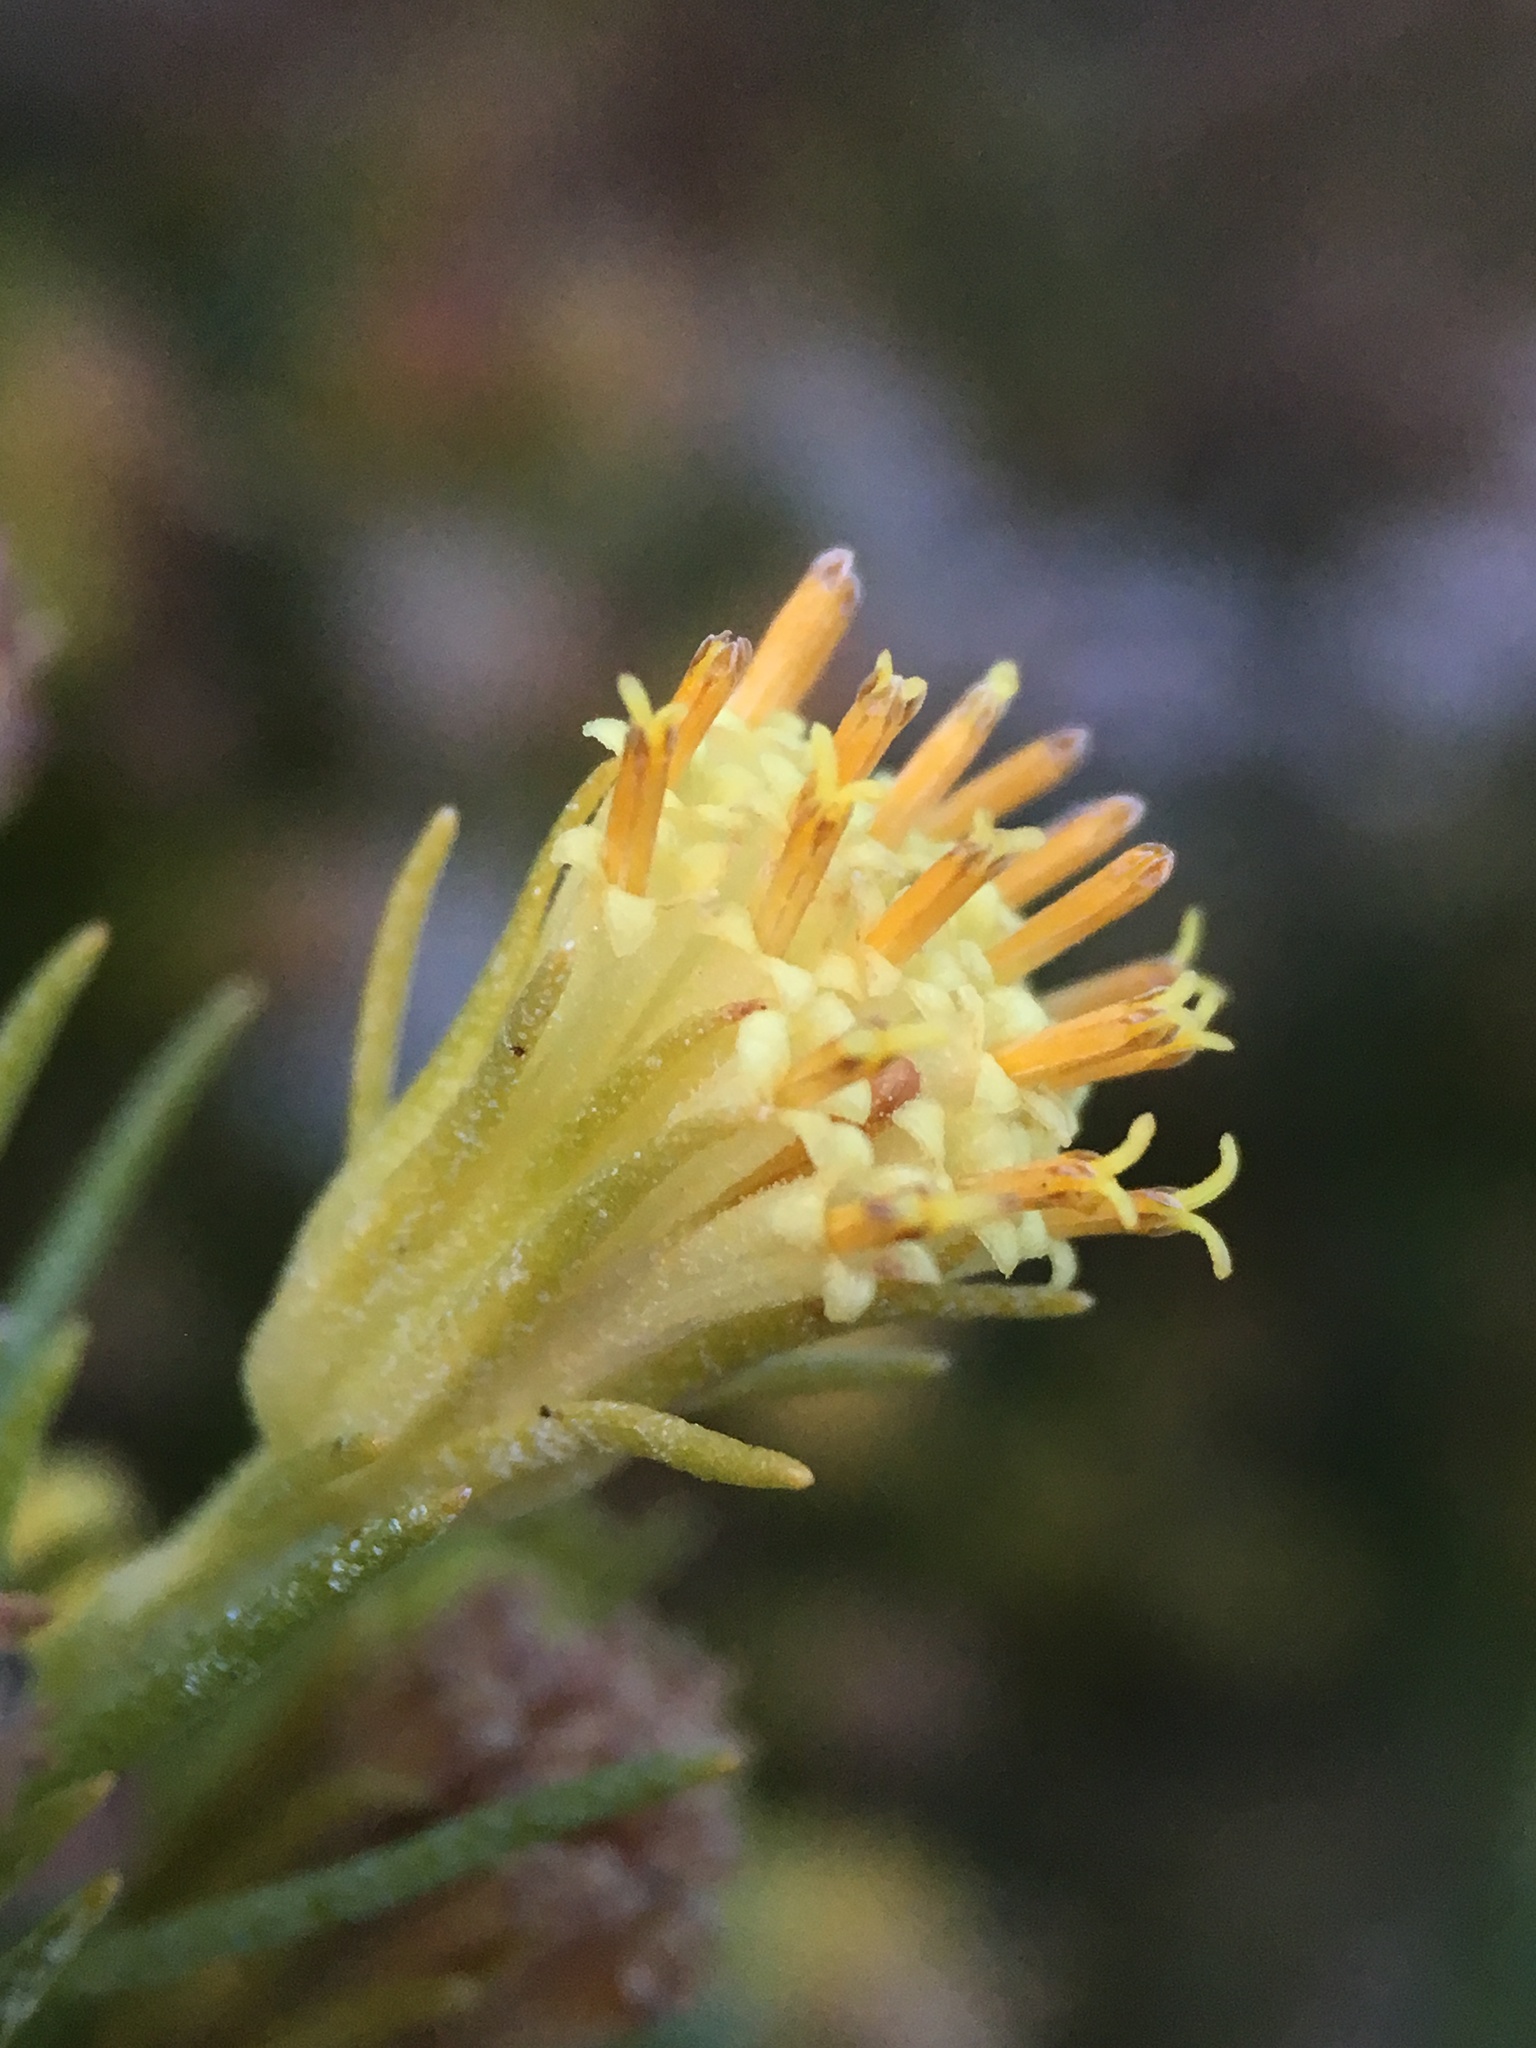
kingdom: Plantae
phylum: Tracheophyta
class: Magnoliopsida
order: Asterales
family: Asteraceae
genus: Peucephyllum
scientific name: Peucephyllum schottii
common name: Pygmy-cedar
